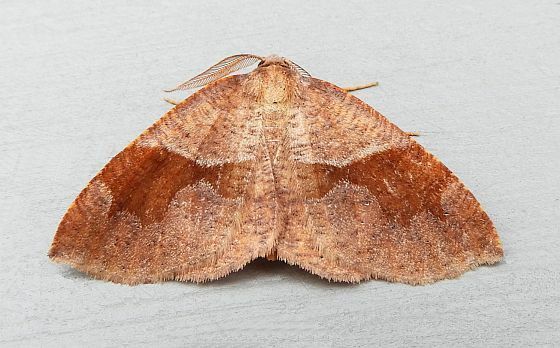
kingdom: Animalia
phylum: Arthropoda
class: Insecta
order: Lepidoptera
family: Geometridae
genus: Plagodis
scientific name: Plagodis pulveraria
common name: Barred umber
